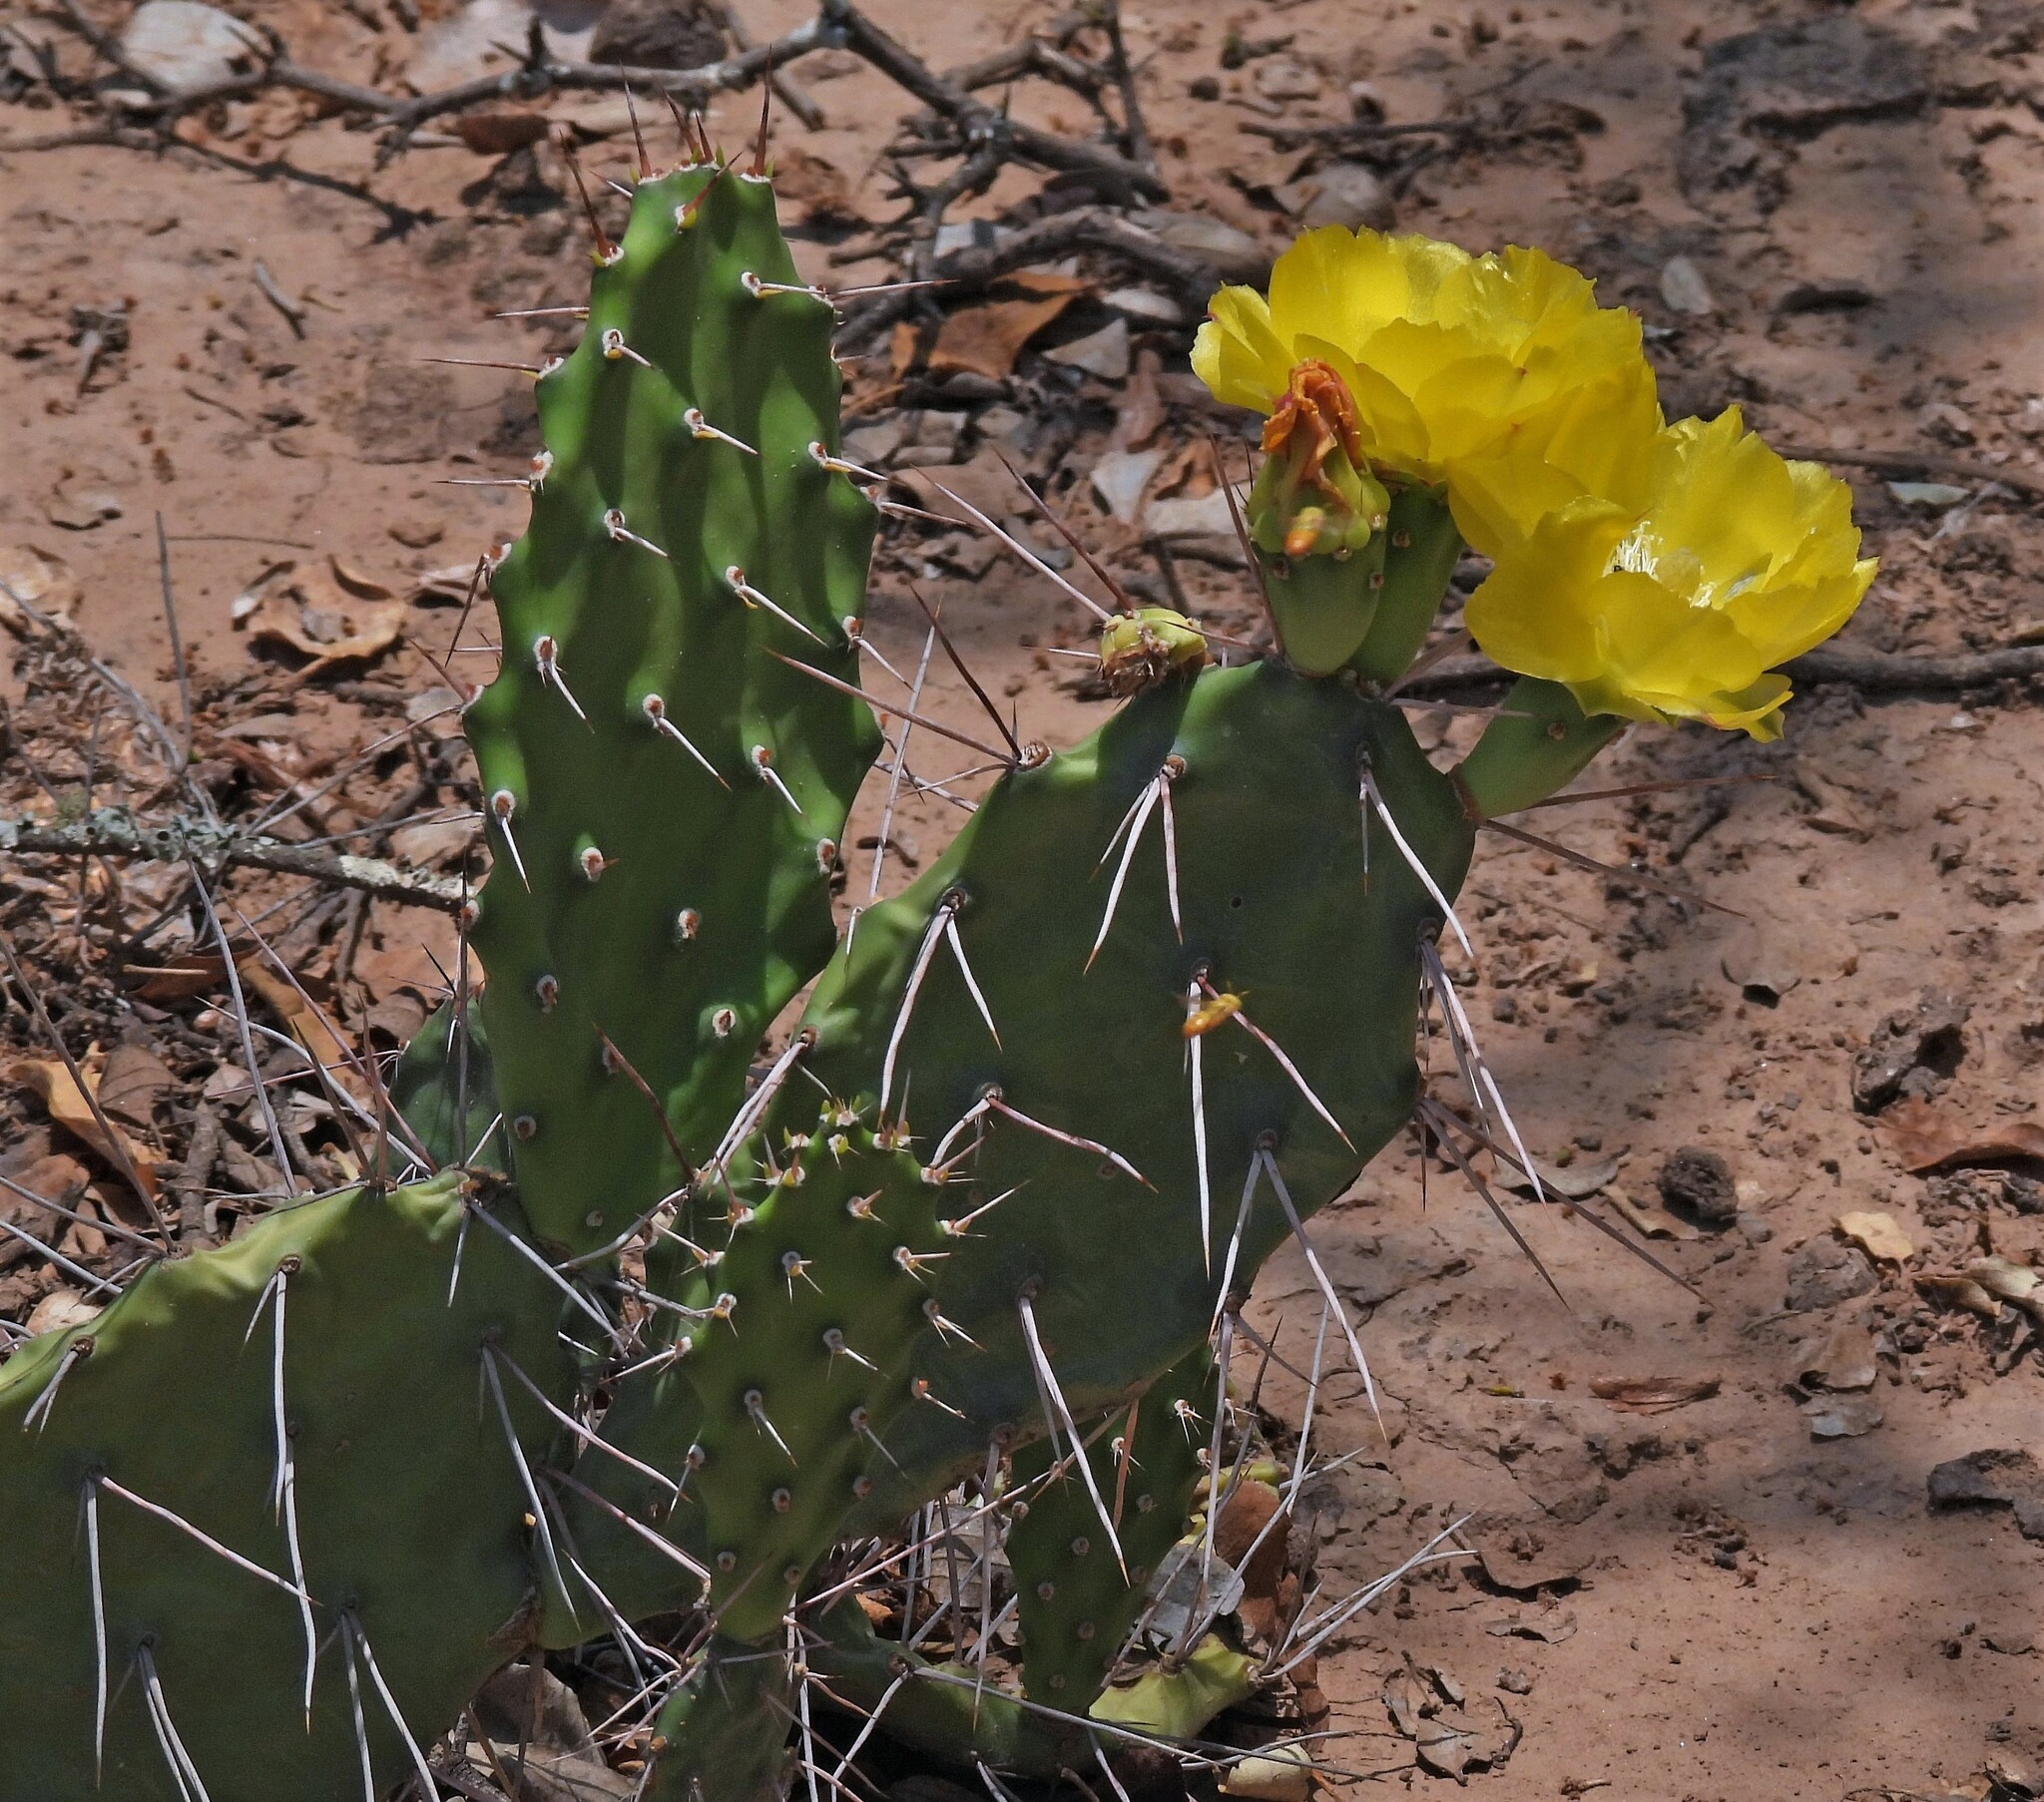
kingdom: Plantae
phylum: Tracheophyta
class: Magnoliopsida
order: Caryophyllales
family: Cactaceae
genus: Opuntia
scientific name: Opuntia sulphurea
